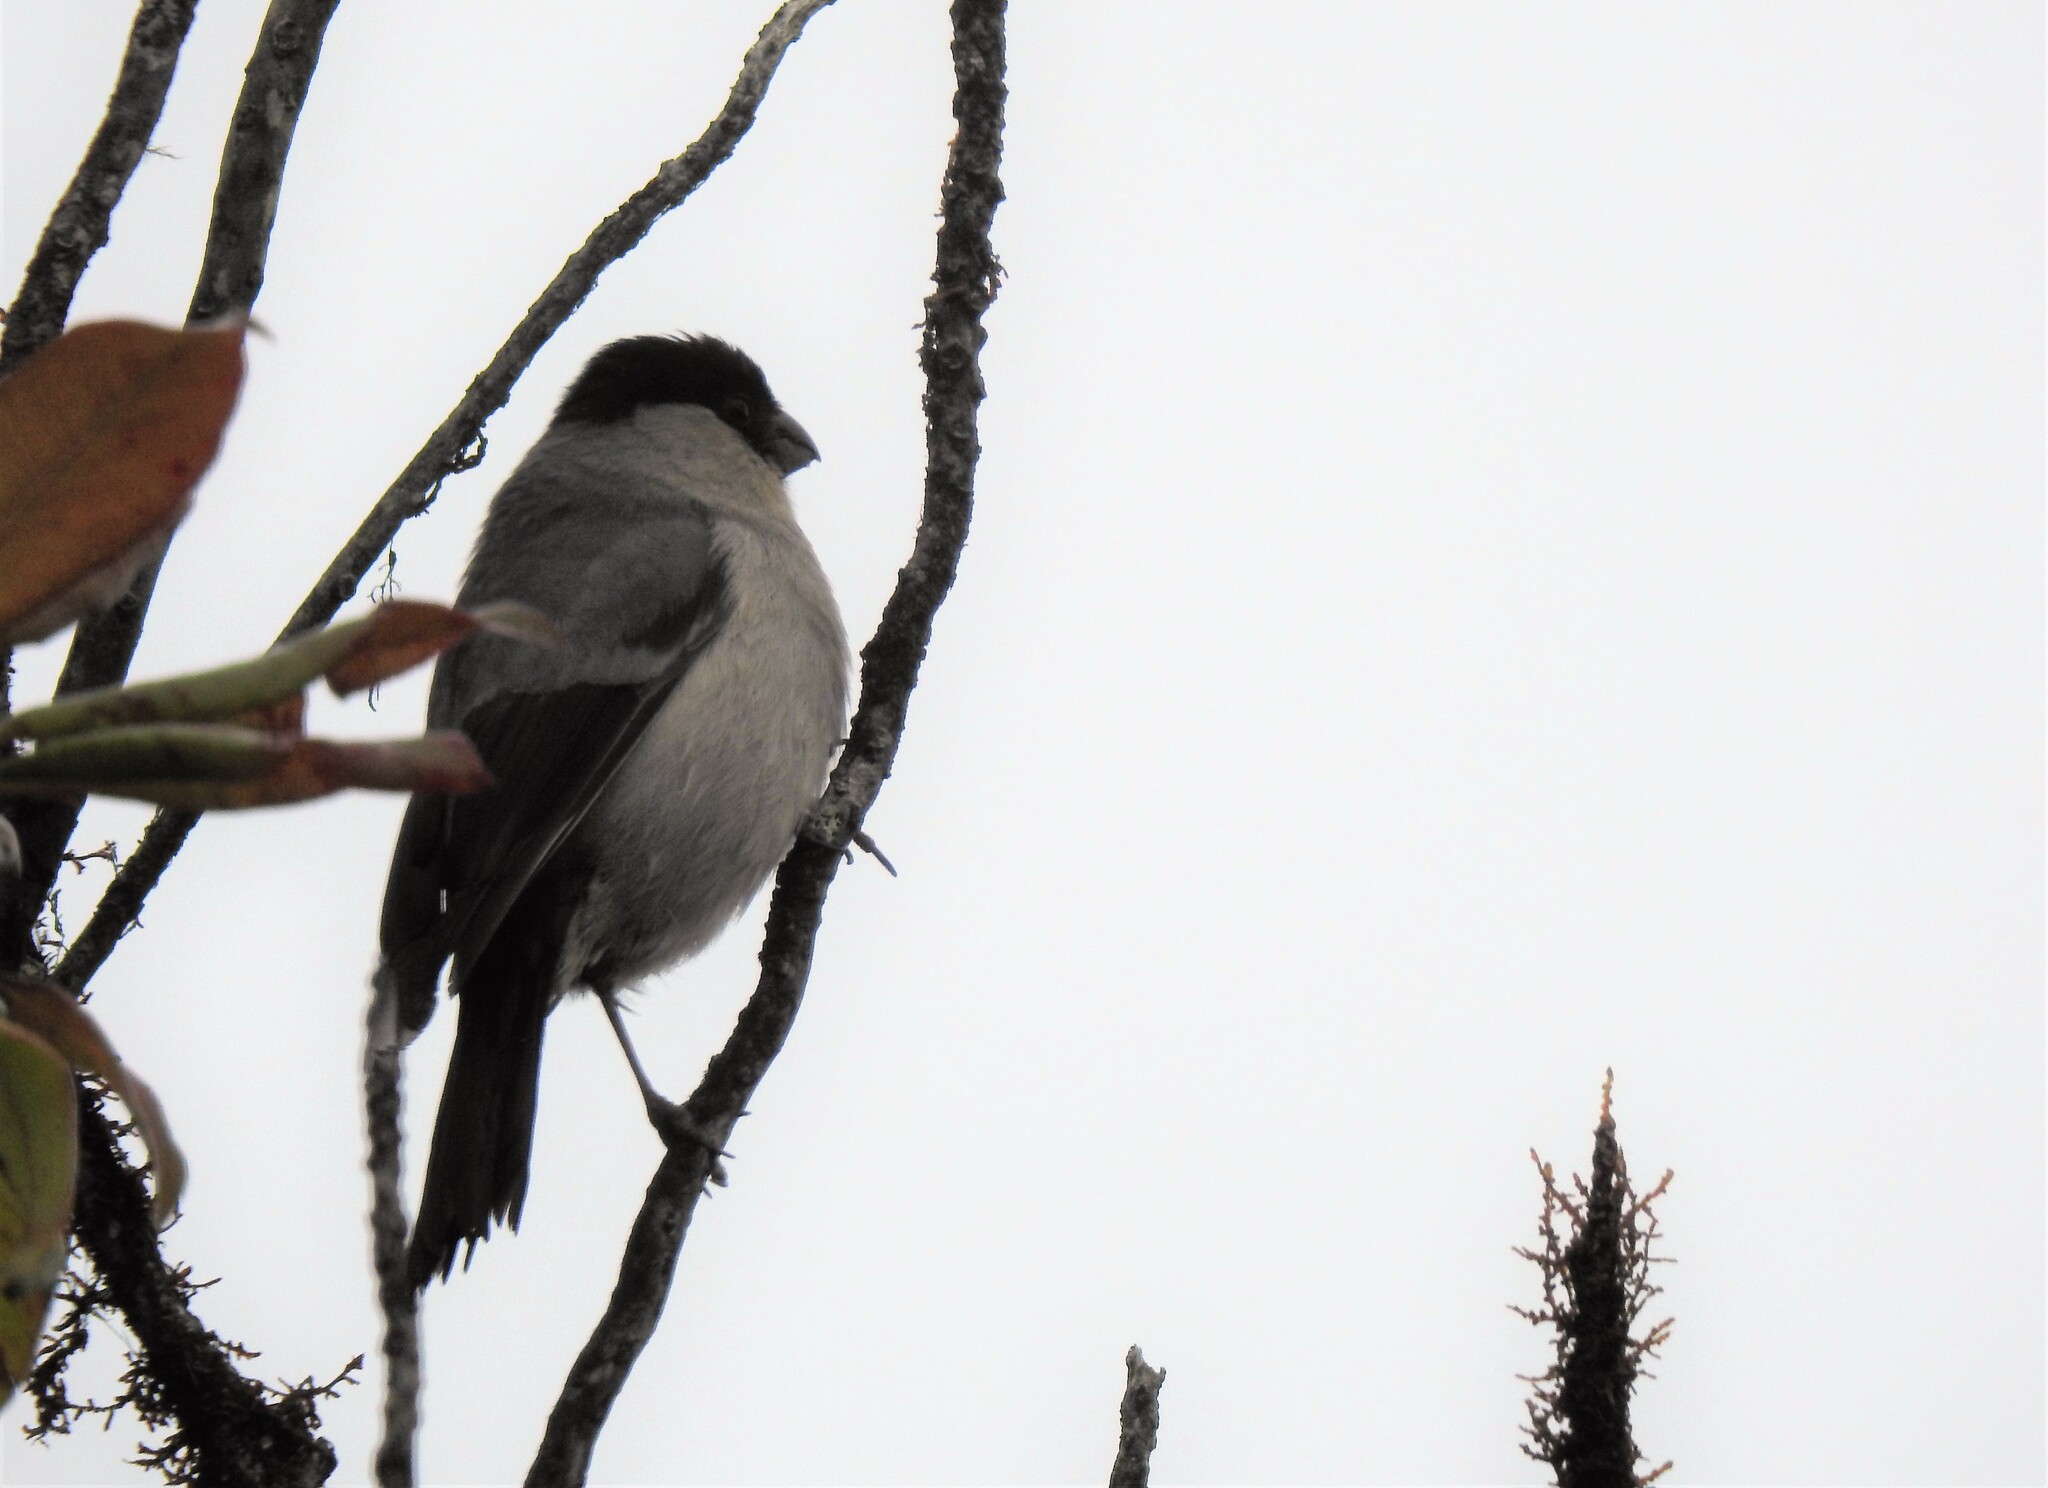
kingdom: Animalia
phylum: Chordata
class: Aves
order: Passeriformes
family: Fringillidae
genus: Pyrrhula
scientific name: Pyrrhula murina
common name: Azores bullfinch
